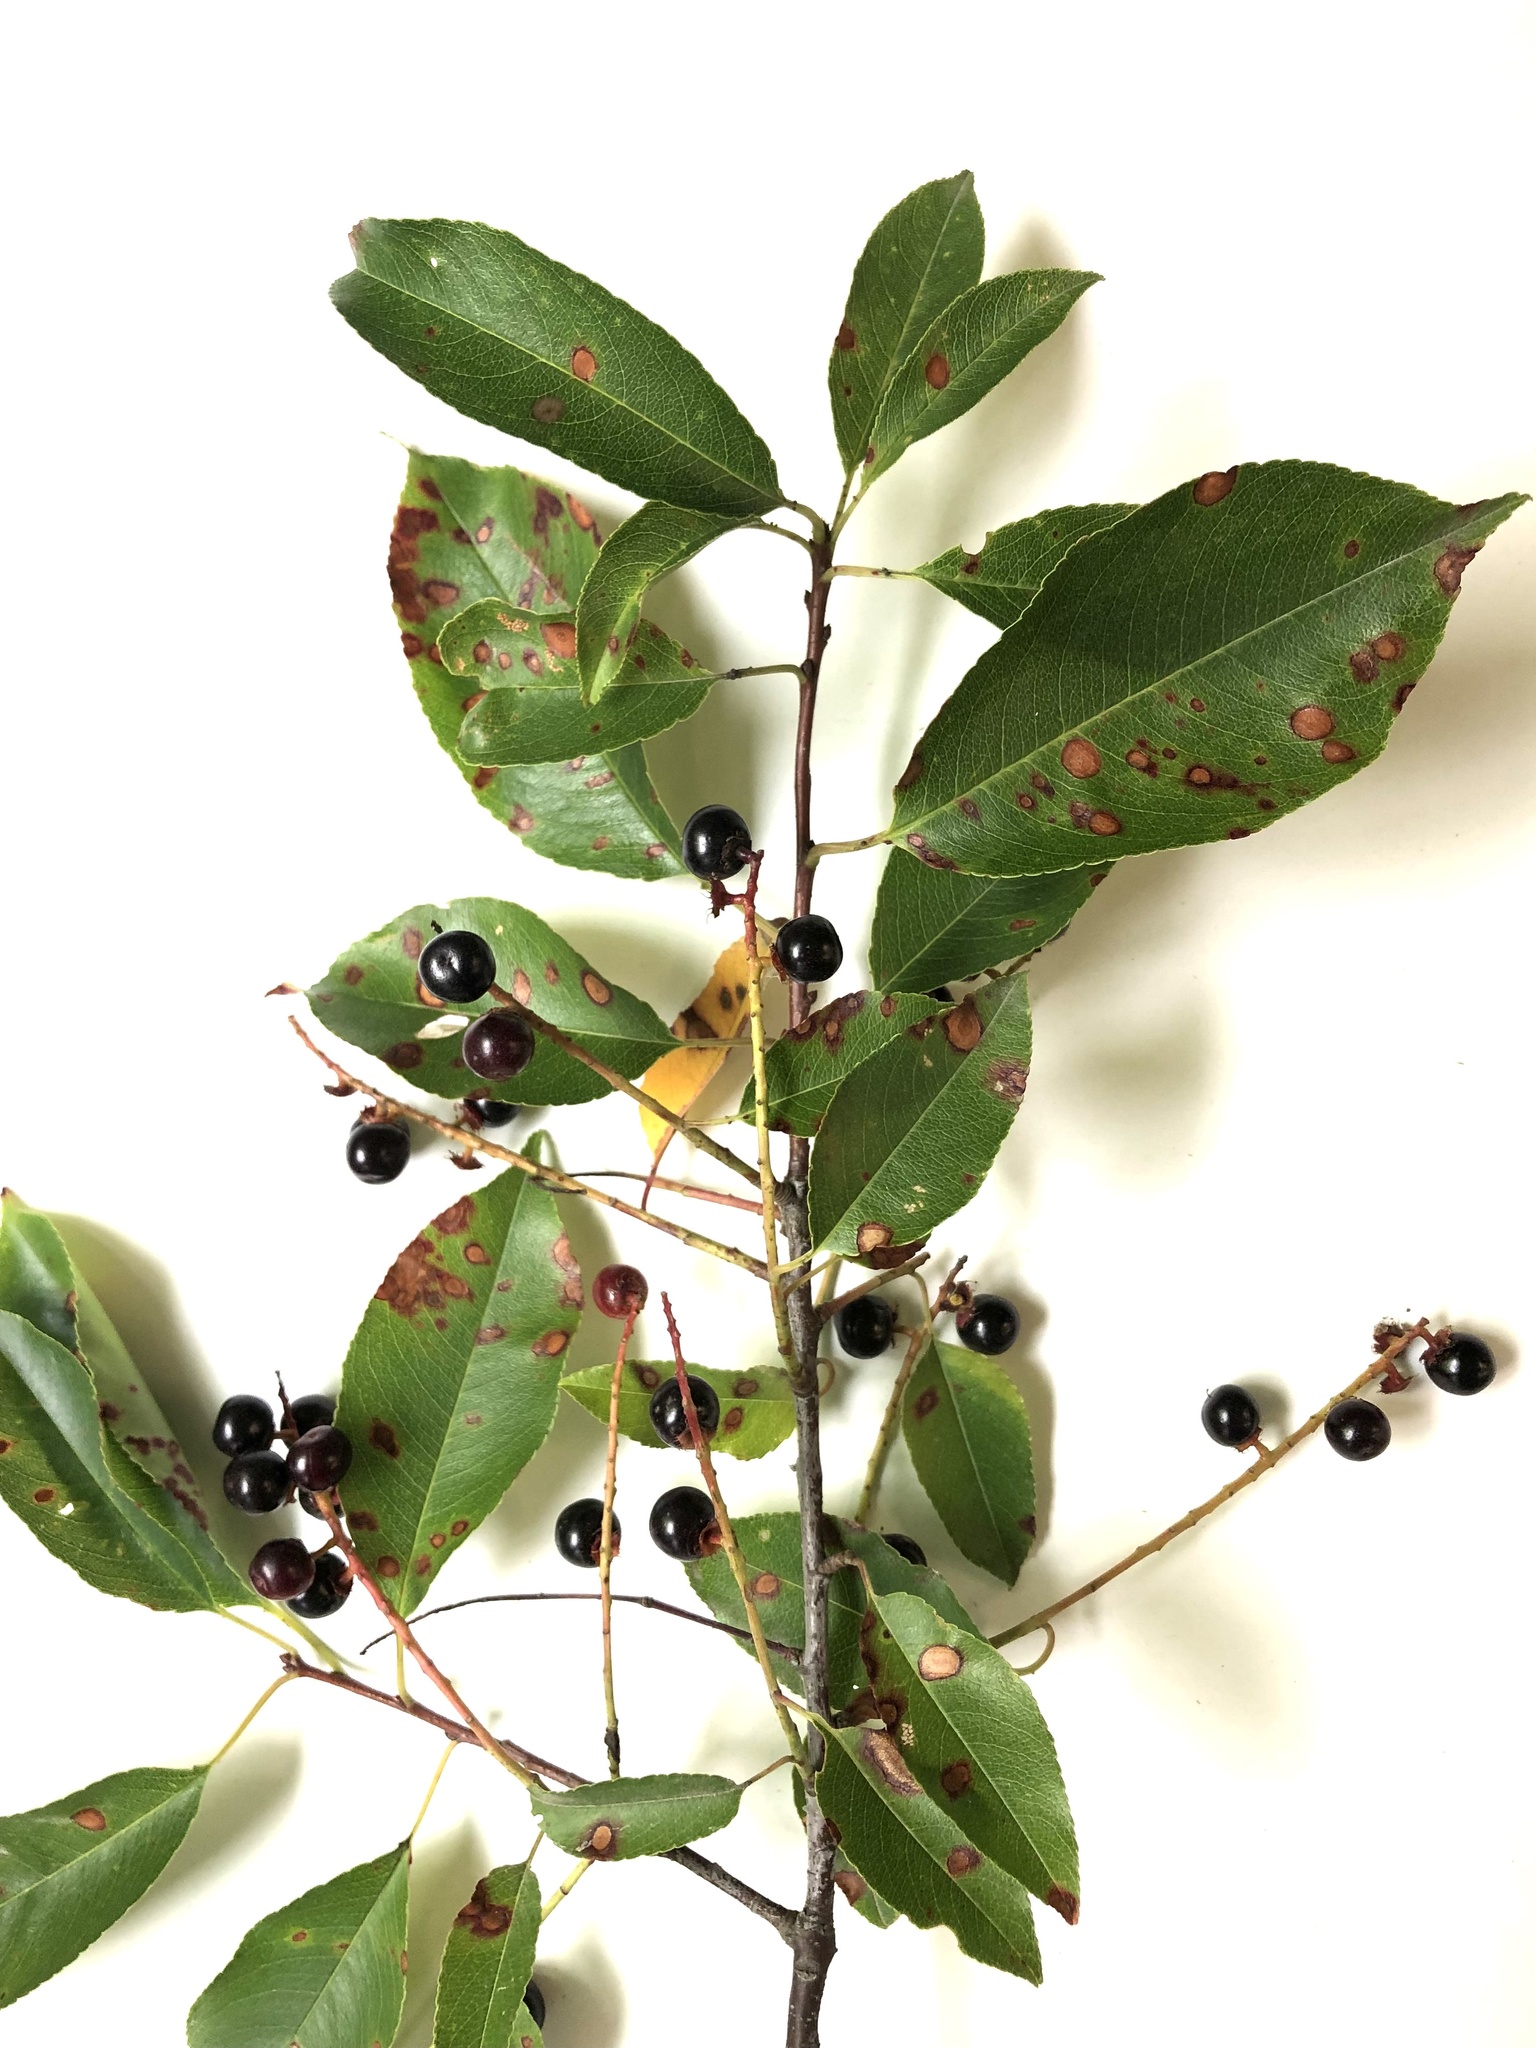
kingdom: Plantae
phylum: Tracheophyta
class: Magnoliopsida
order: Rosales
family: Rosaceae
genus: Prunus
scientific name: Prunus serotina
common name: Black cherry
